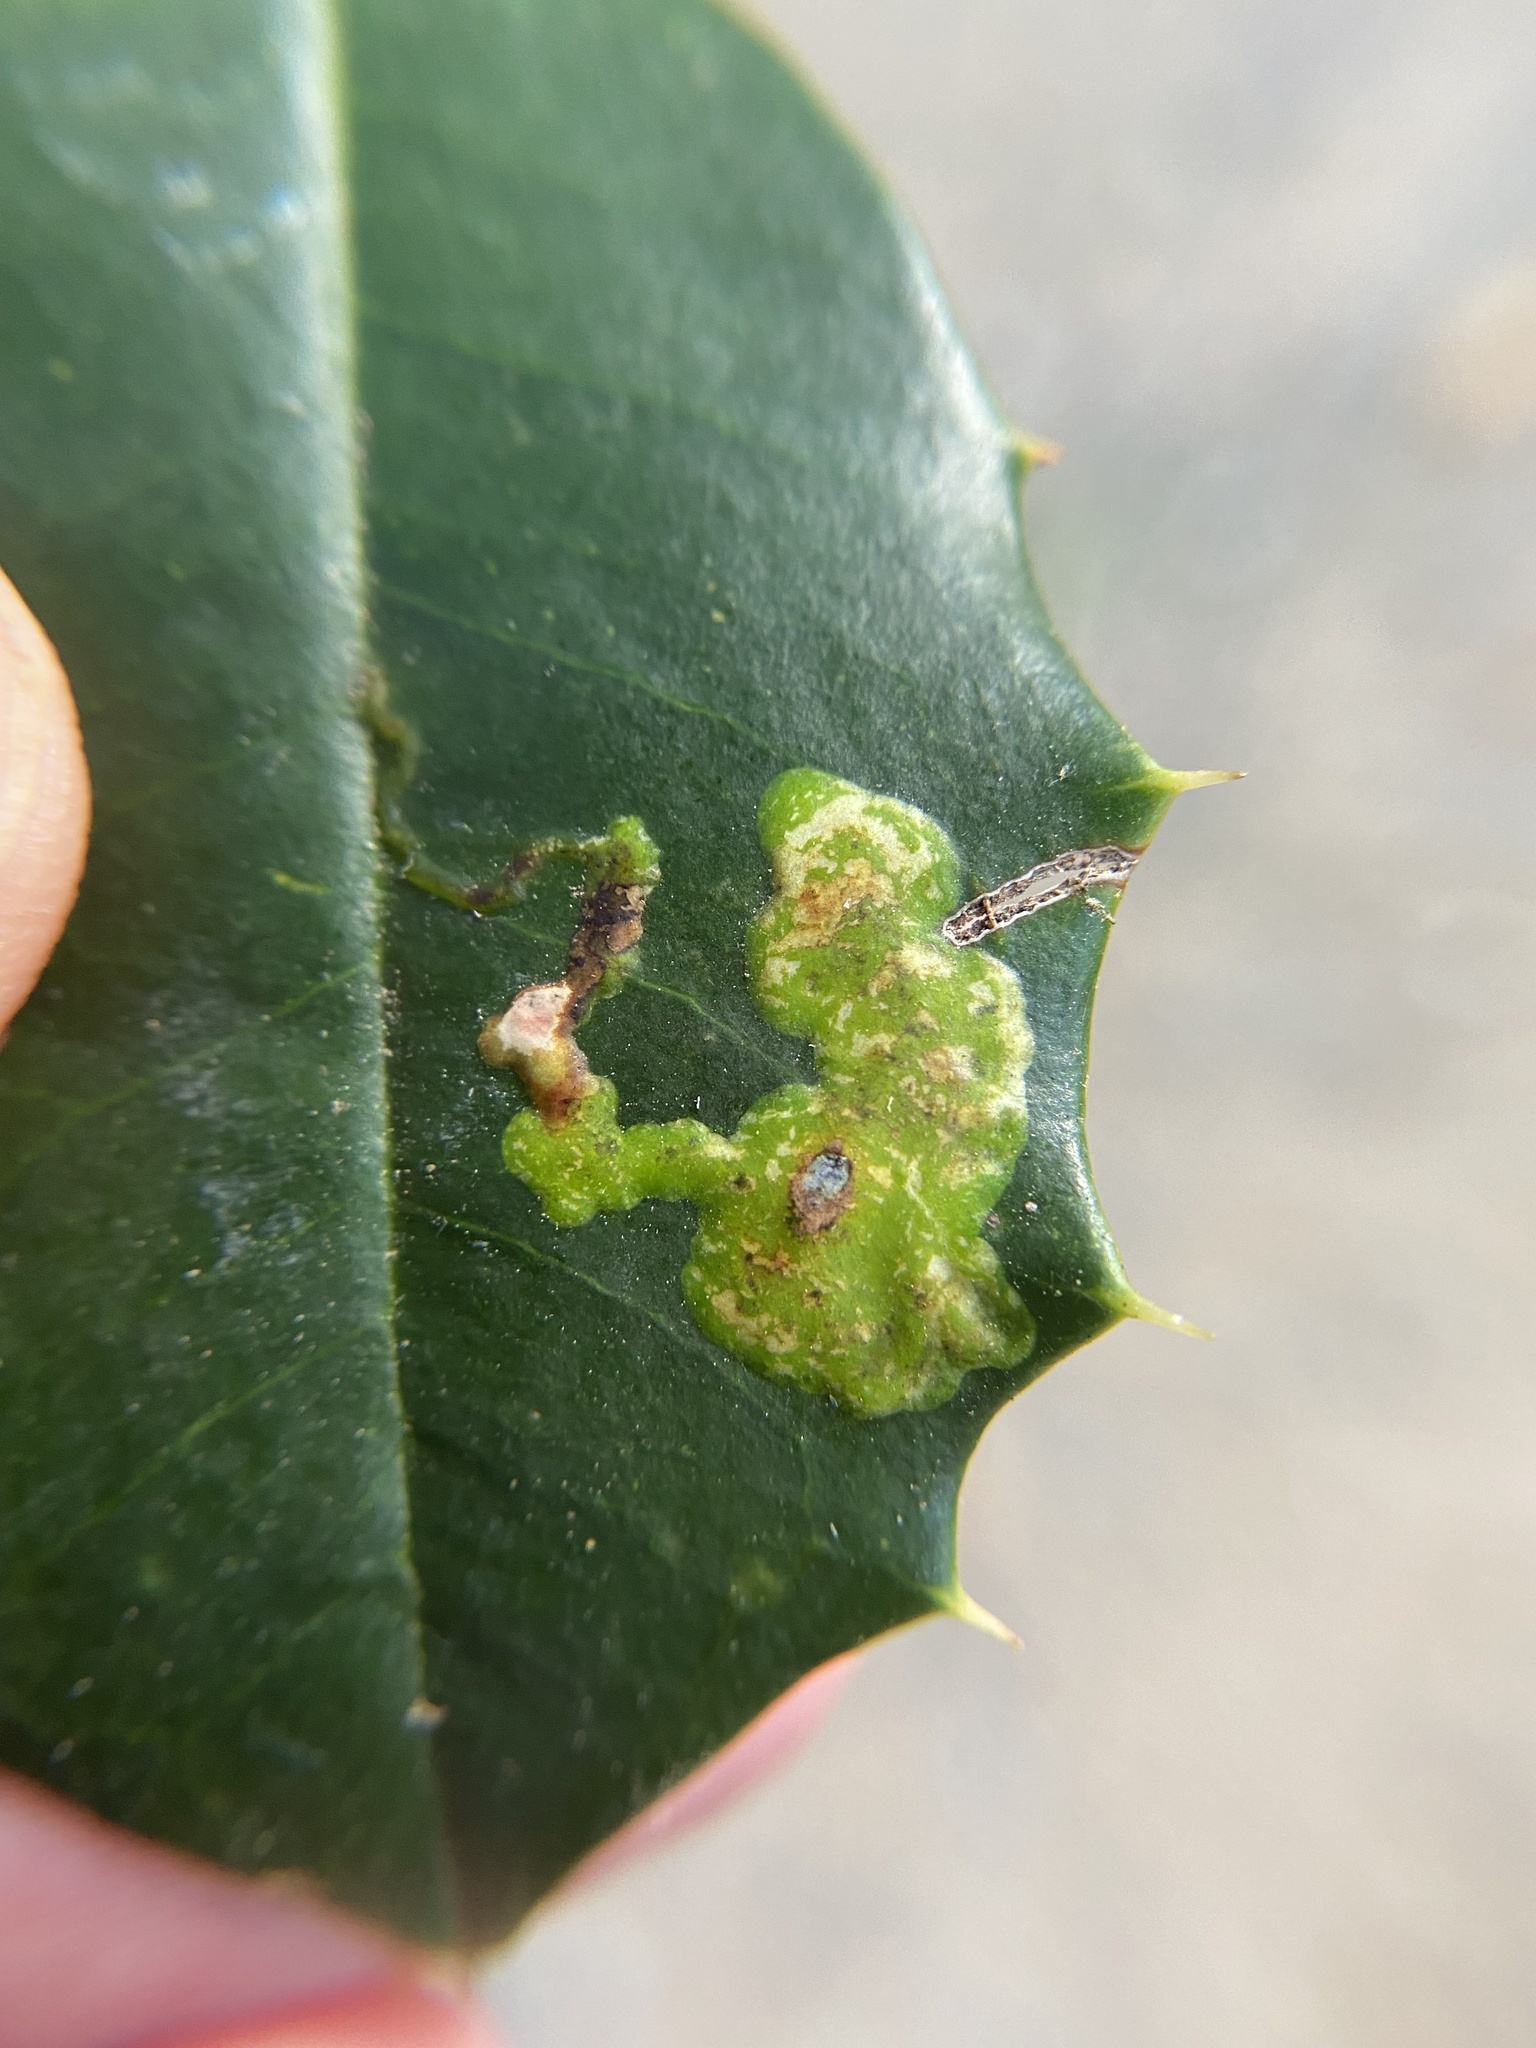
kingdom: Animalia
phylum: Arthropoda
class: Insecta
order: Diptera
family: Agromyzidae
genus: Phytomyza
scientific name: Phytomyza ilicicola
